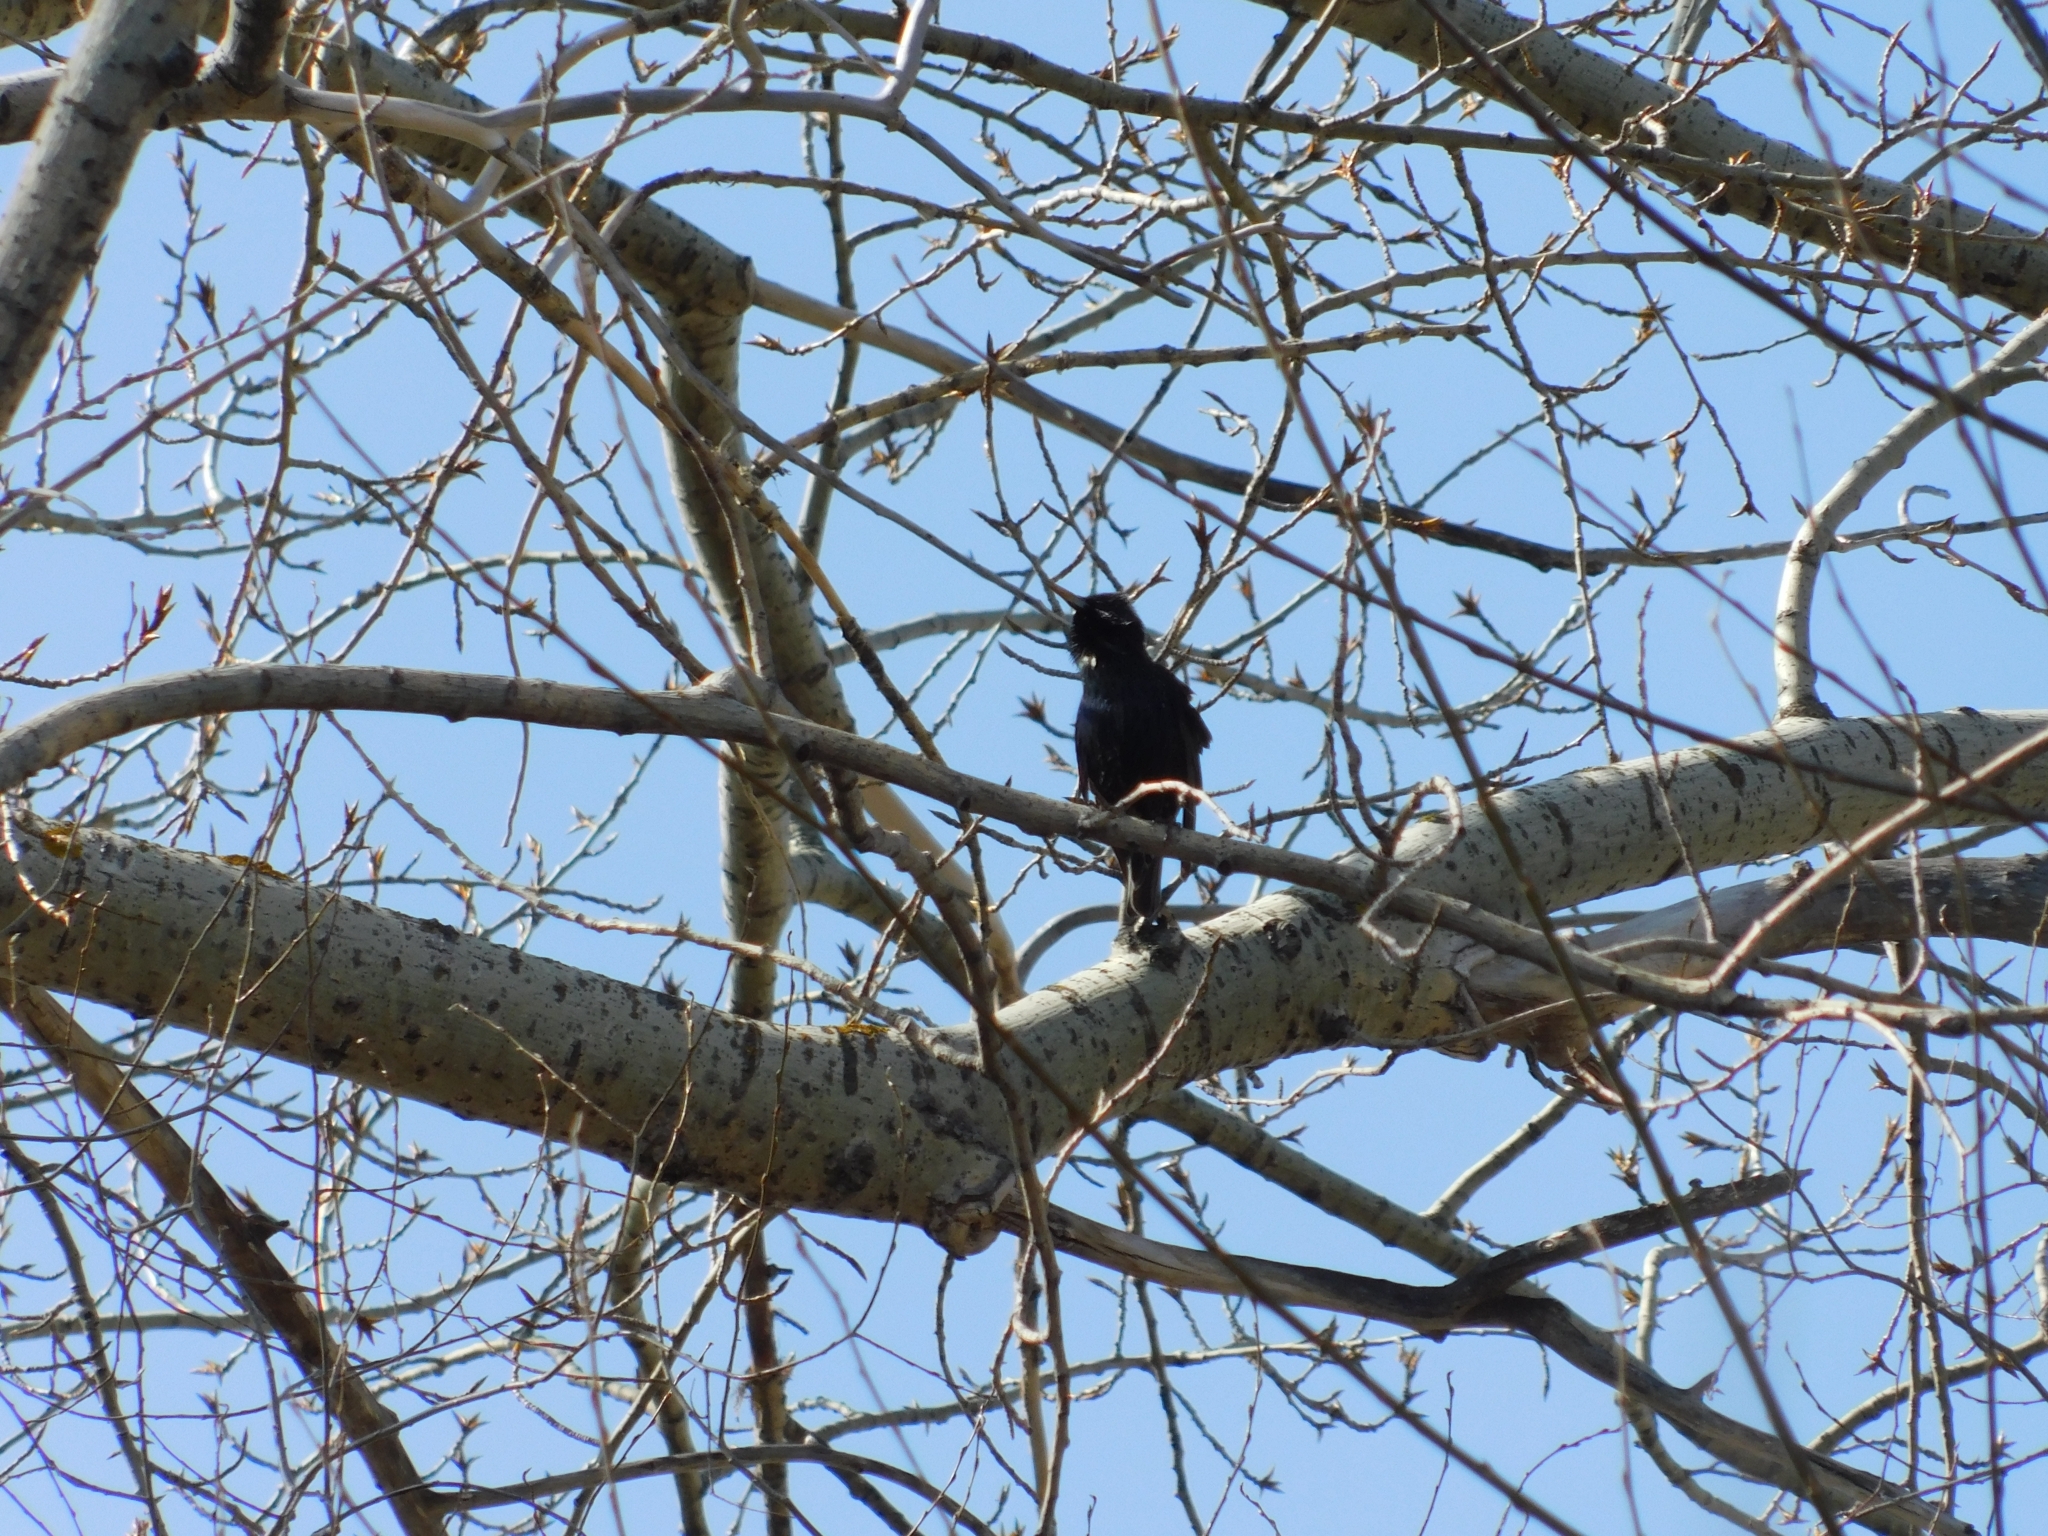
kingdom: Animalia
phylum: Chordata
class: Aves
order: Passeriformes
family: Sturnidae
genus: Sturnus
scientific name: Sturnus vulgaris
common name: Common starling
